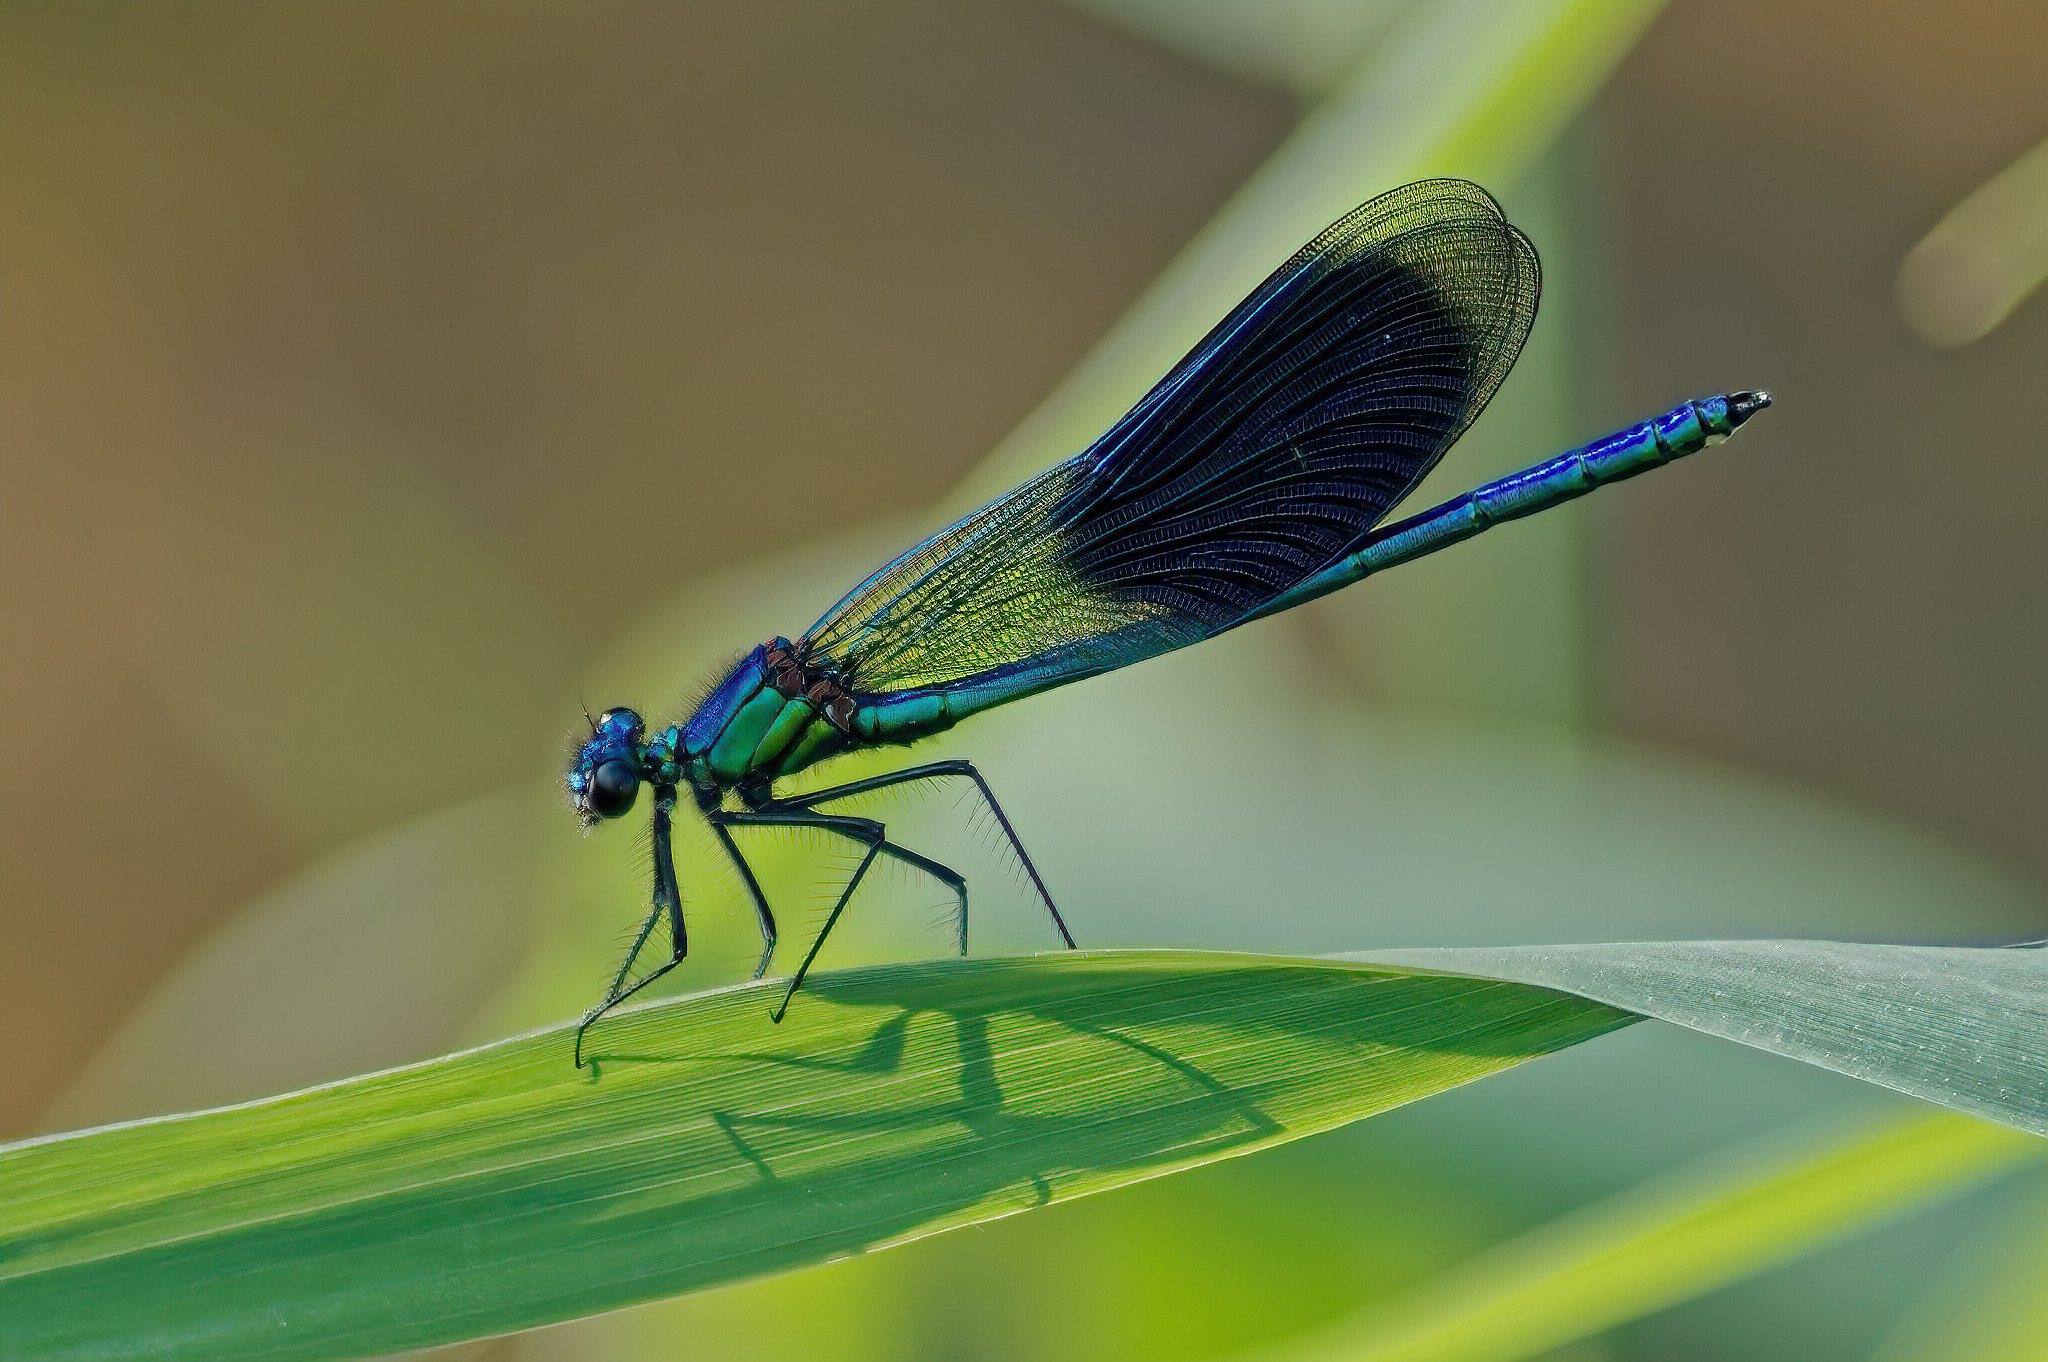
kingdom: Animalia
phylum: Arthropoda
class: Insecta
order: Odonata
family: Calopterygidae
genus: Calopteryx
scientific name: Calopteryx splendens
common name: Banded demoiselle
